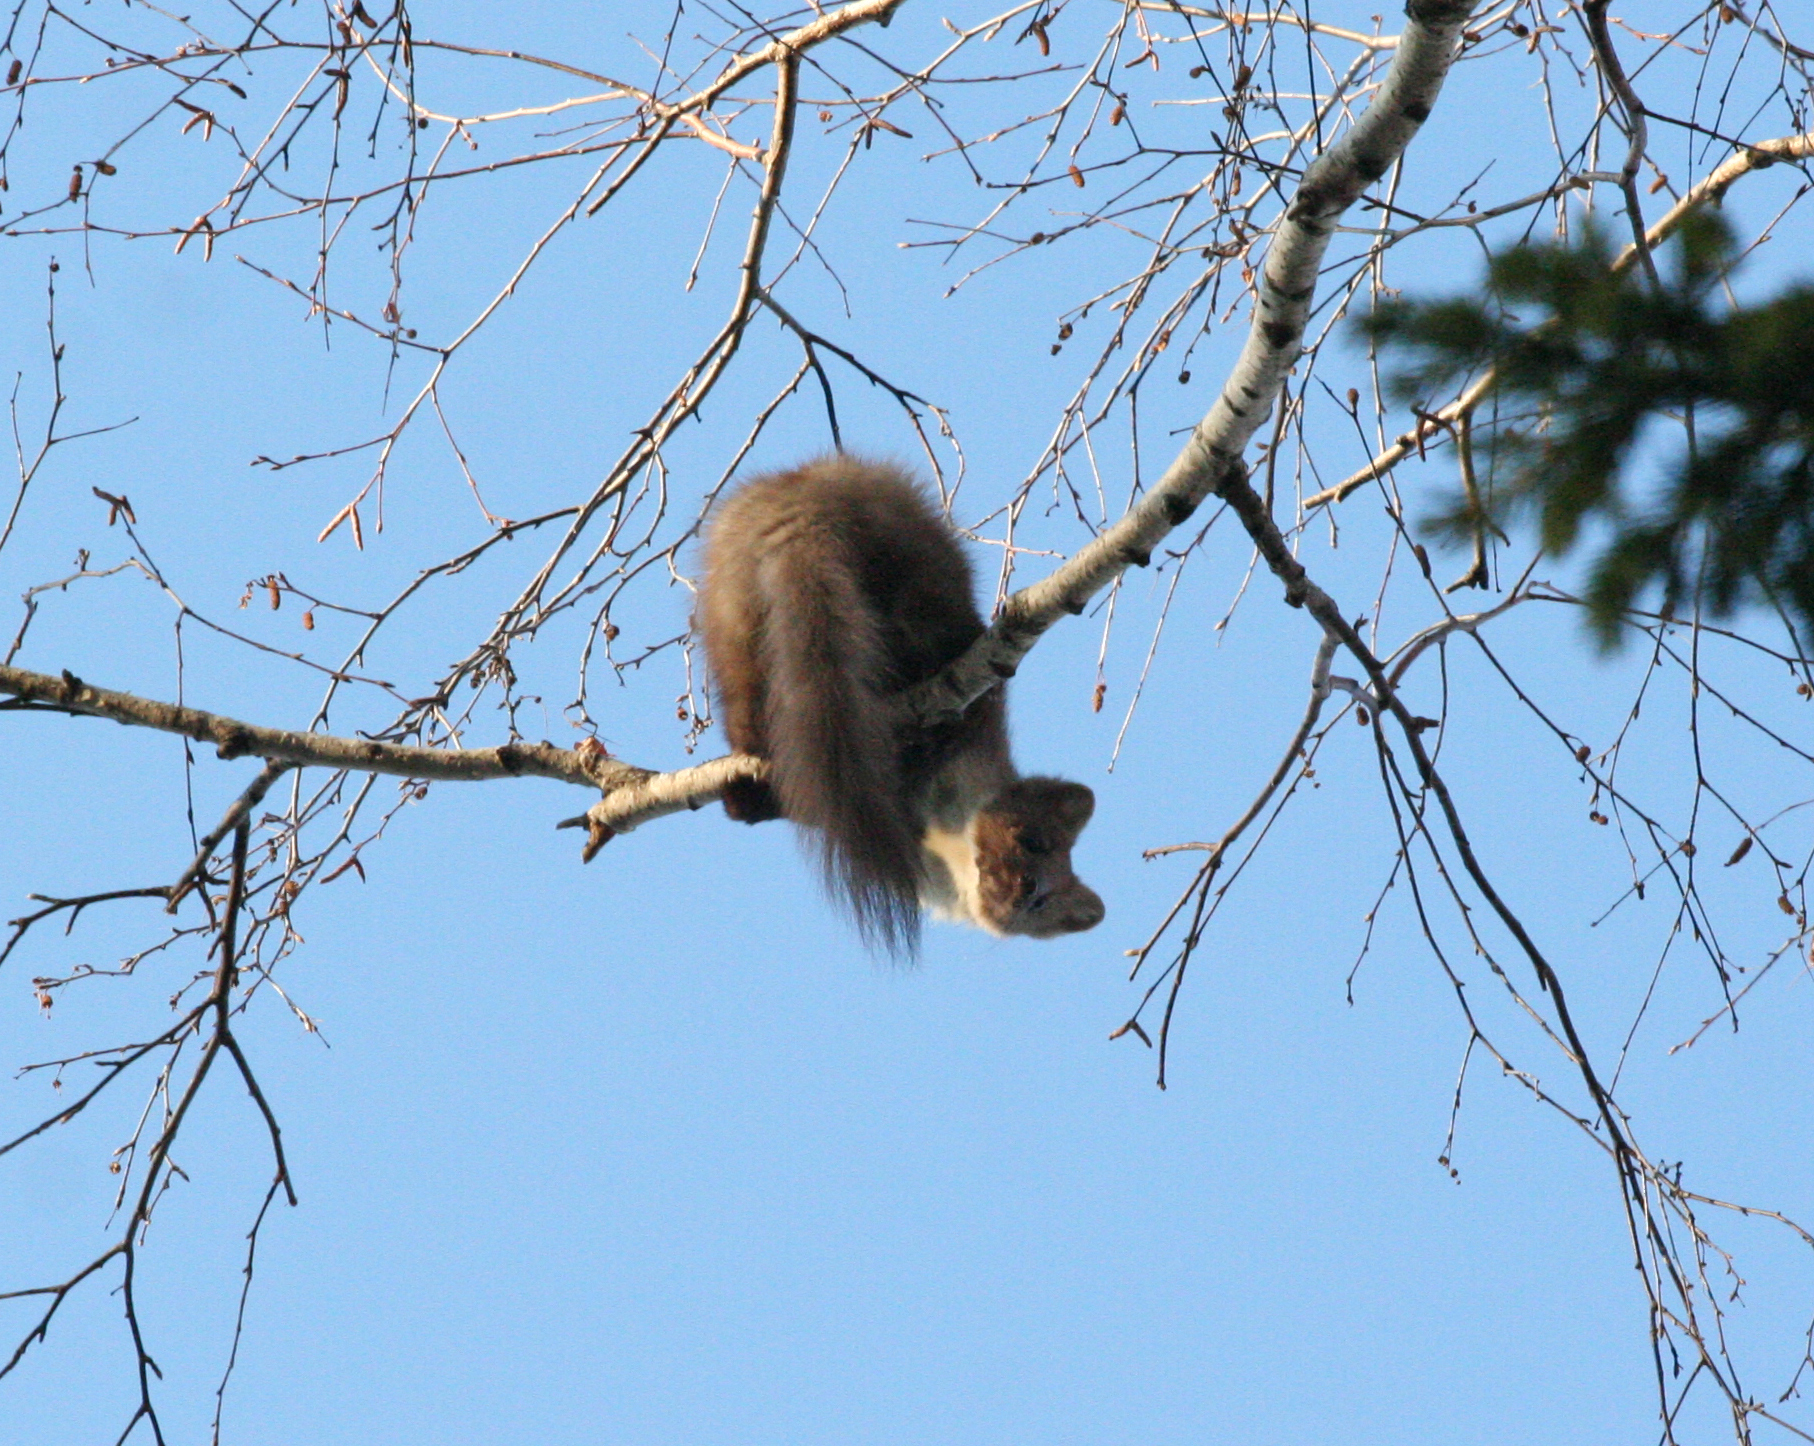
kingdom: Animalia
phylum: Chordata
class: Mammalia
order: Carnivora
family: Mustelidae
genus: Martes
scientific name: Martes martes
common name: European pine marten
